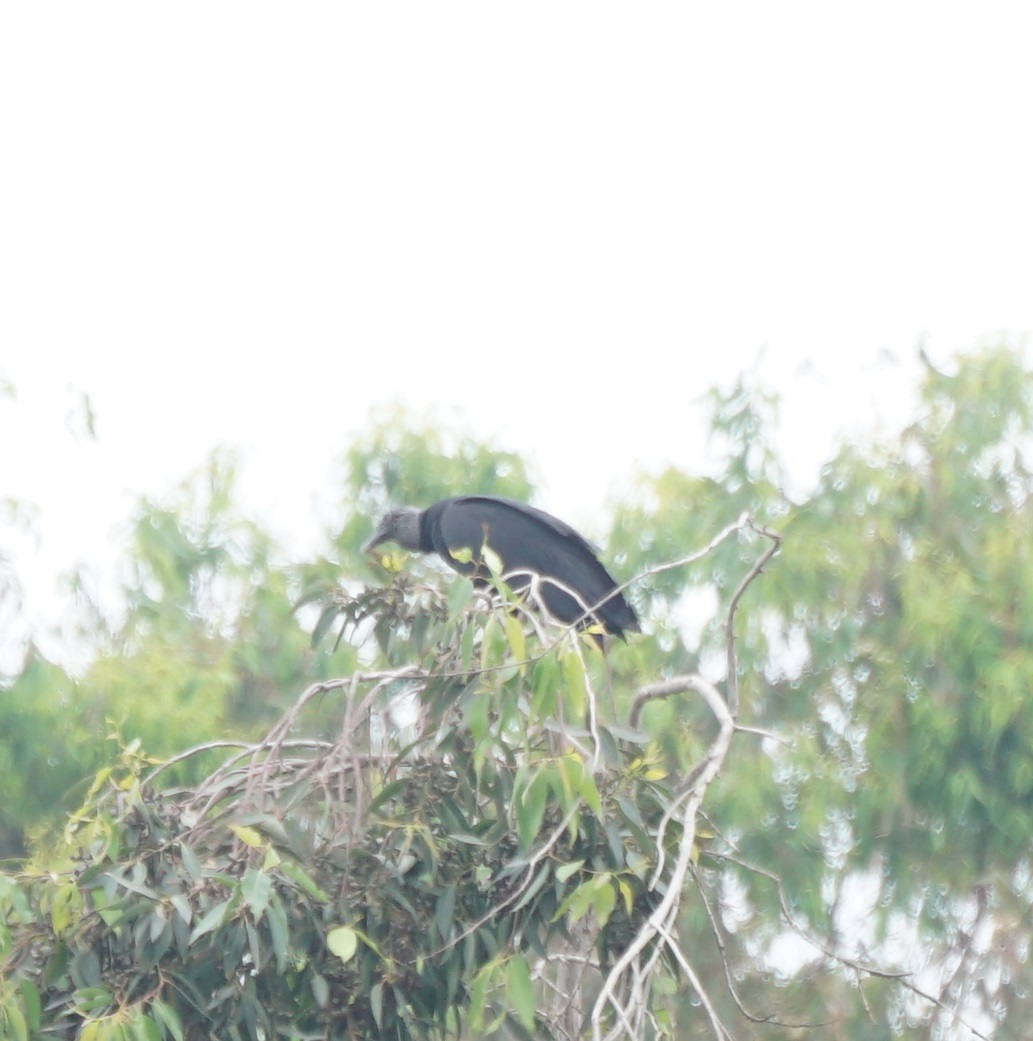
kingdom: Animalia
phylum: Chordata
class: Aves
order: Accipitriformes
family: Cathartidae
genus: Coragyps
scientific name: Coragyps atratus
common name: Black vulture
